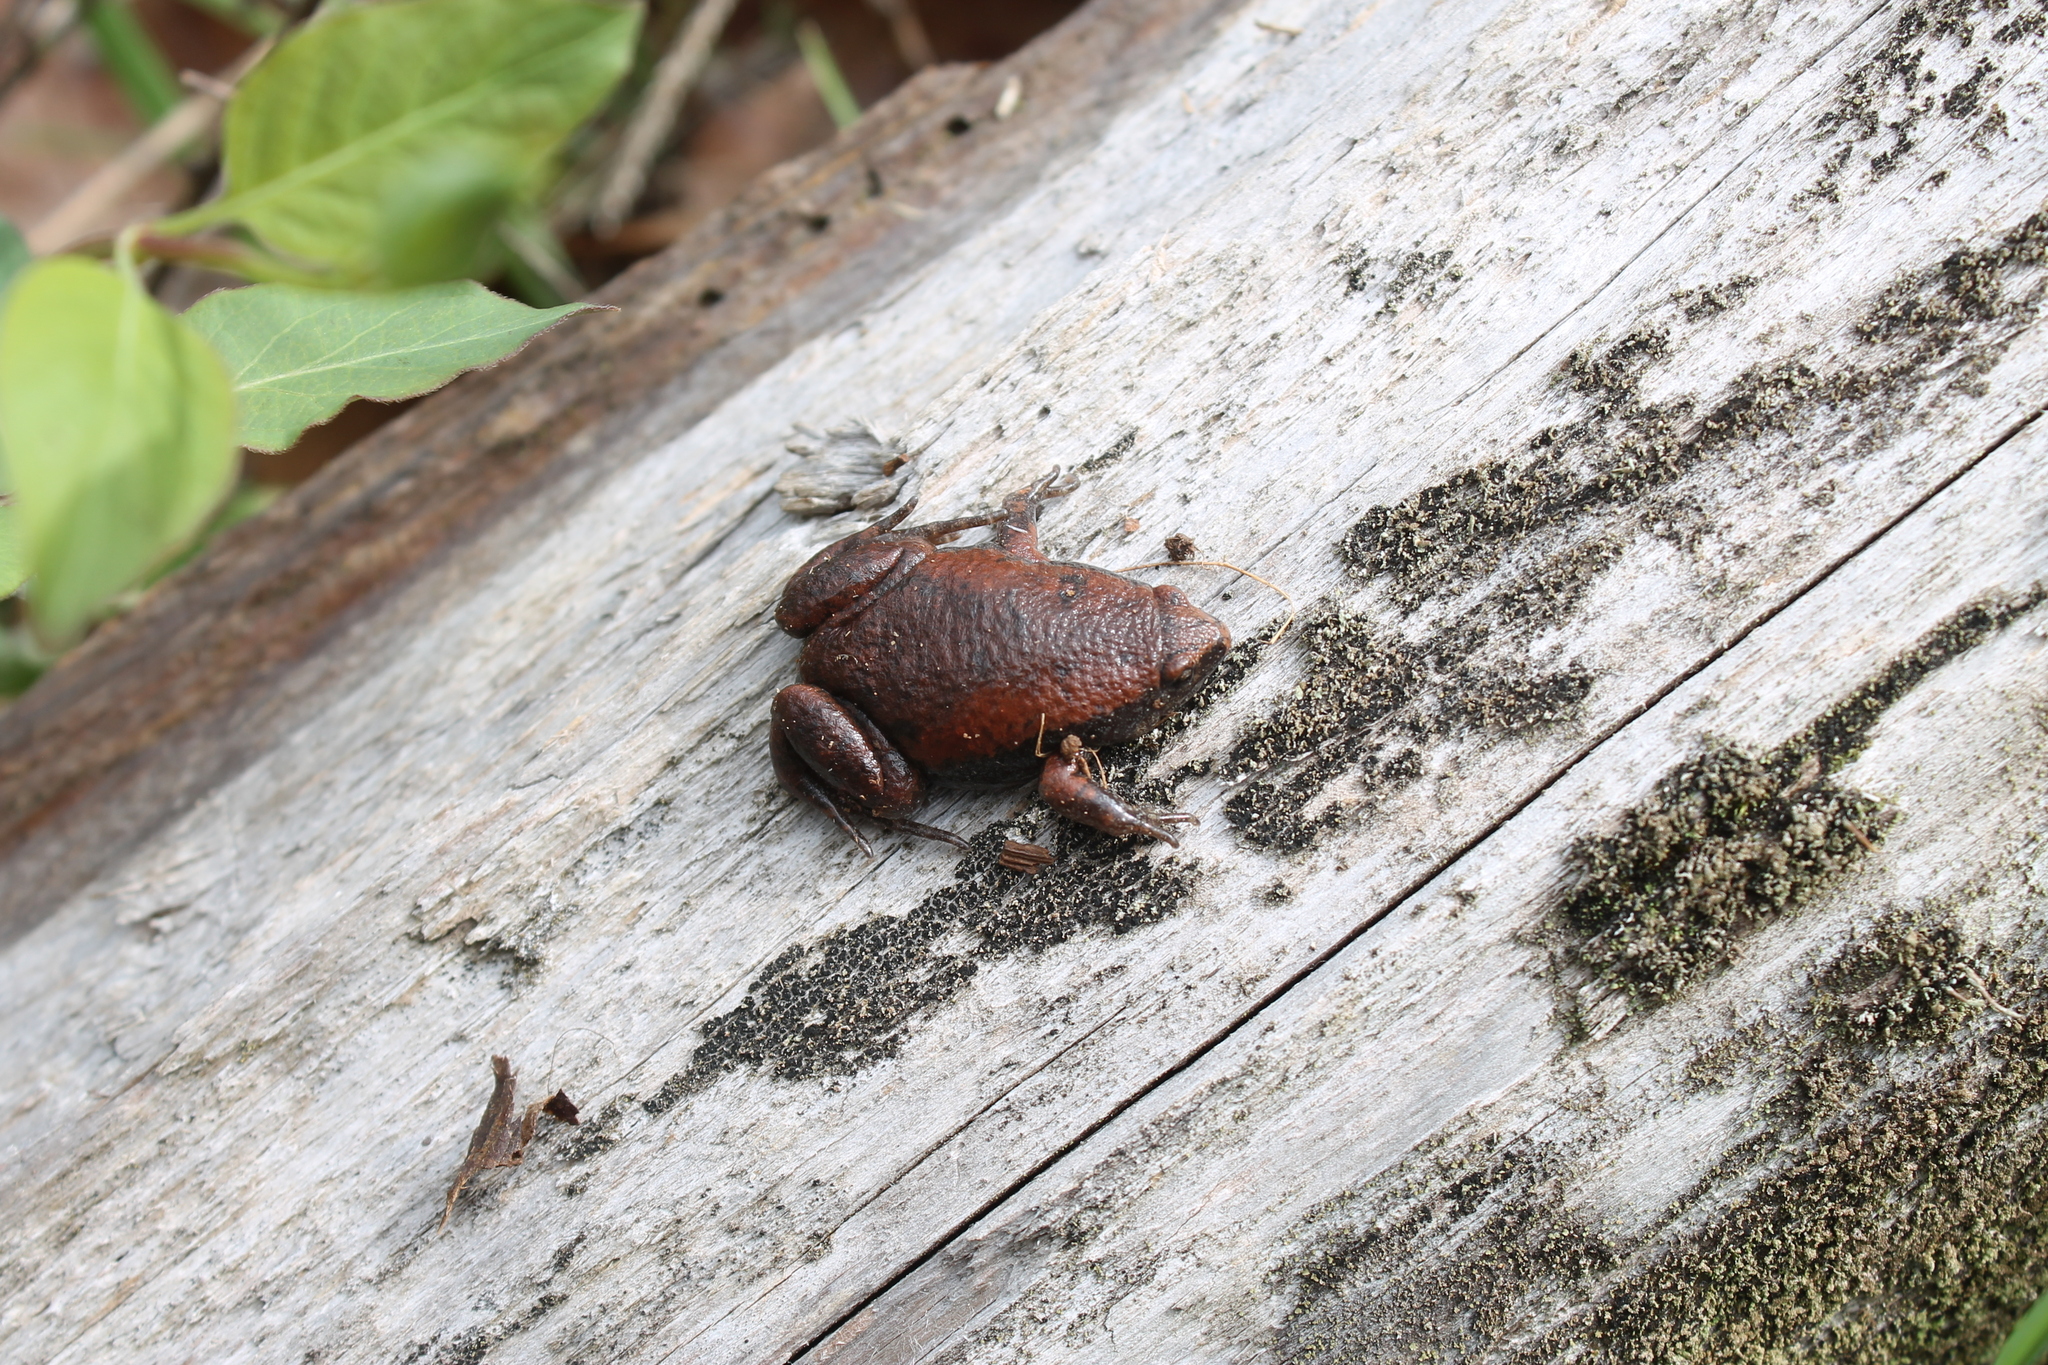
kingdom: Animalia
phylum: Chordata
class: Amphibia
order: Anura
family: Microhylidae
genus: Gastrophryne
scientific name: Gastrophryne carolinensis
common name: Eastern narrowmouth toad
